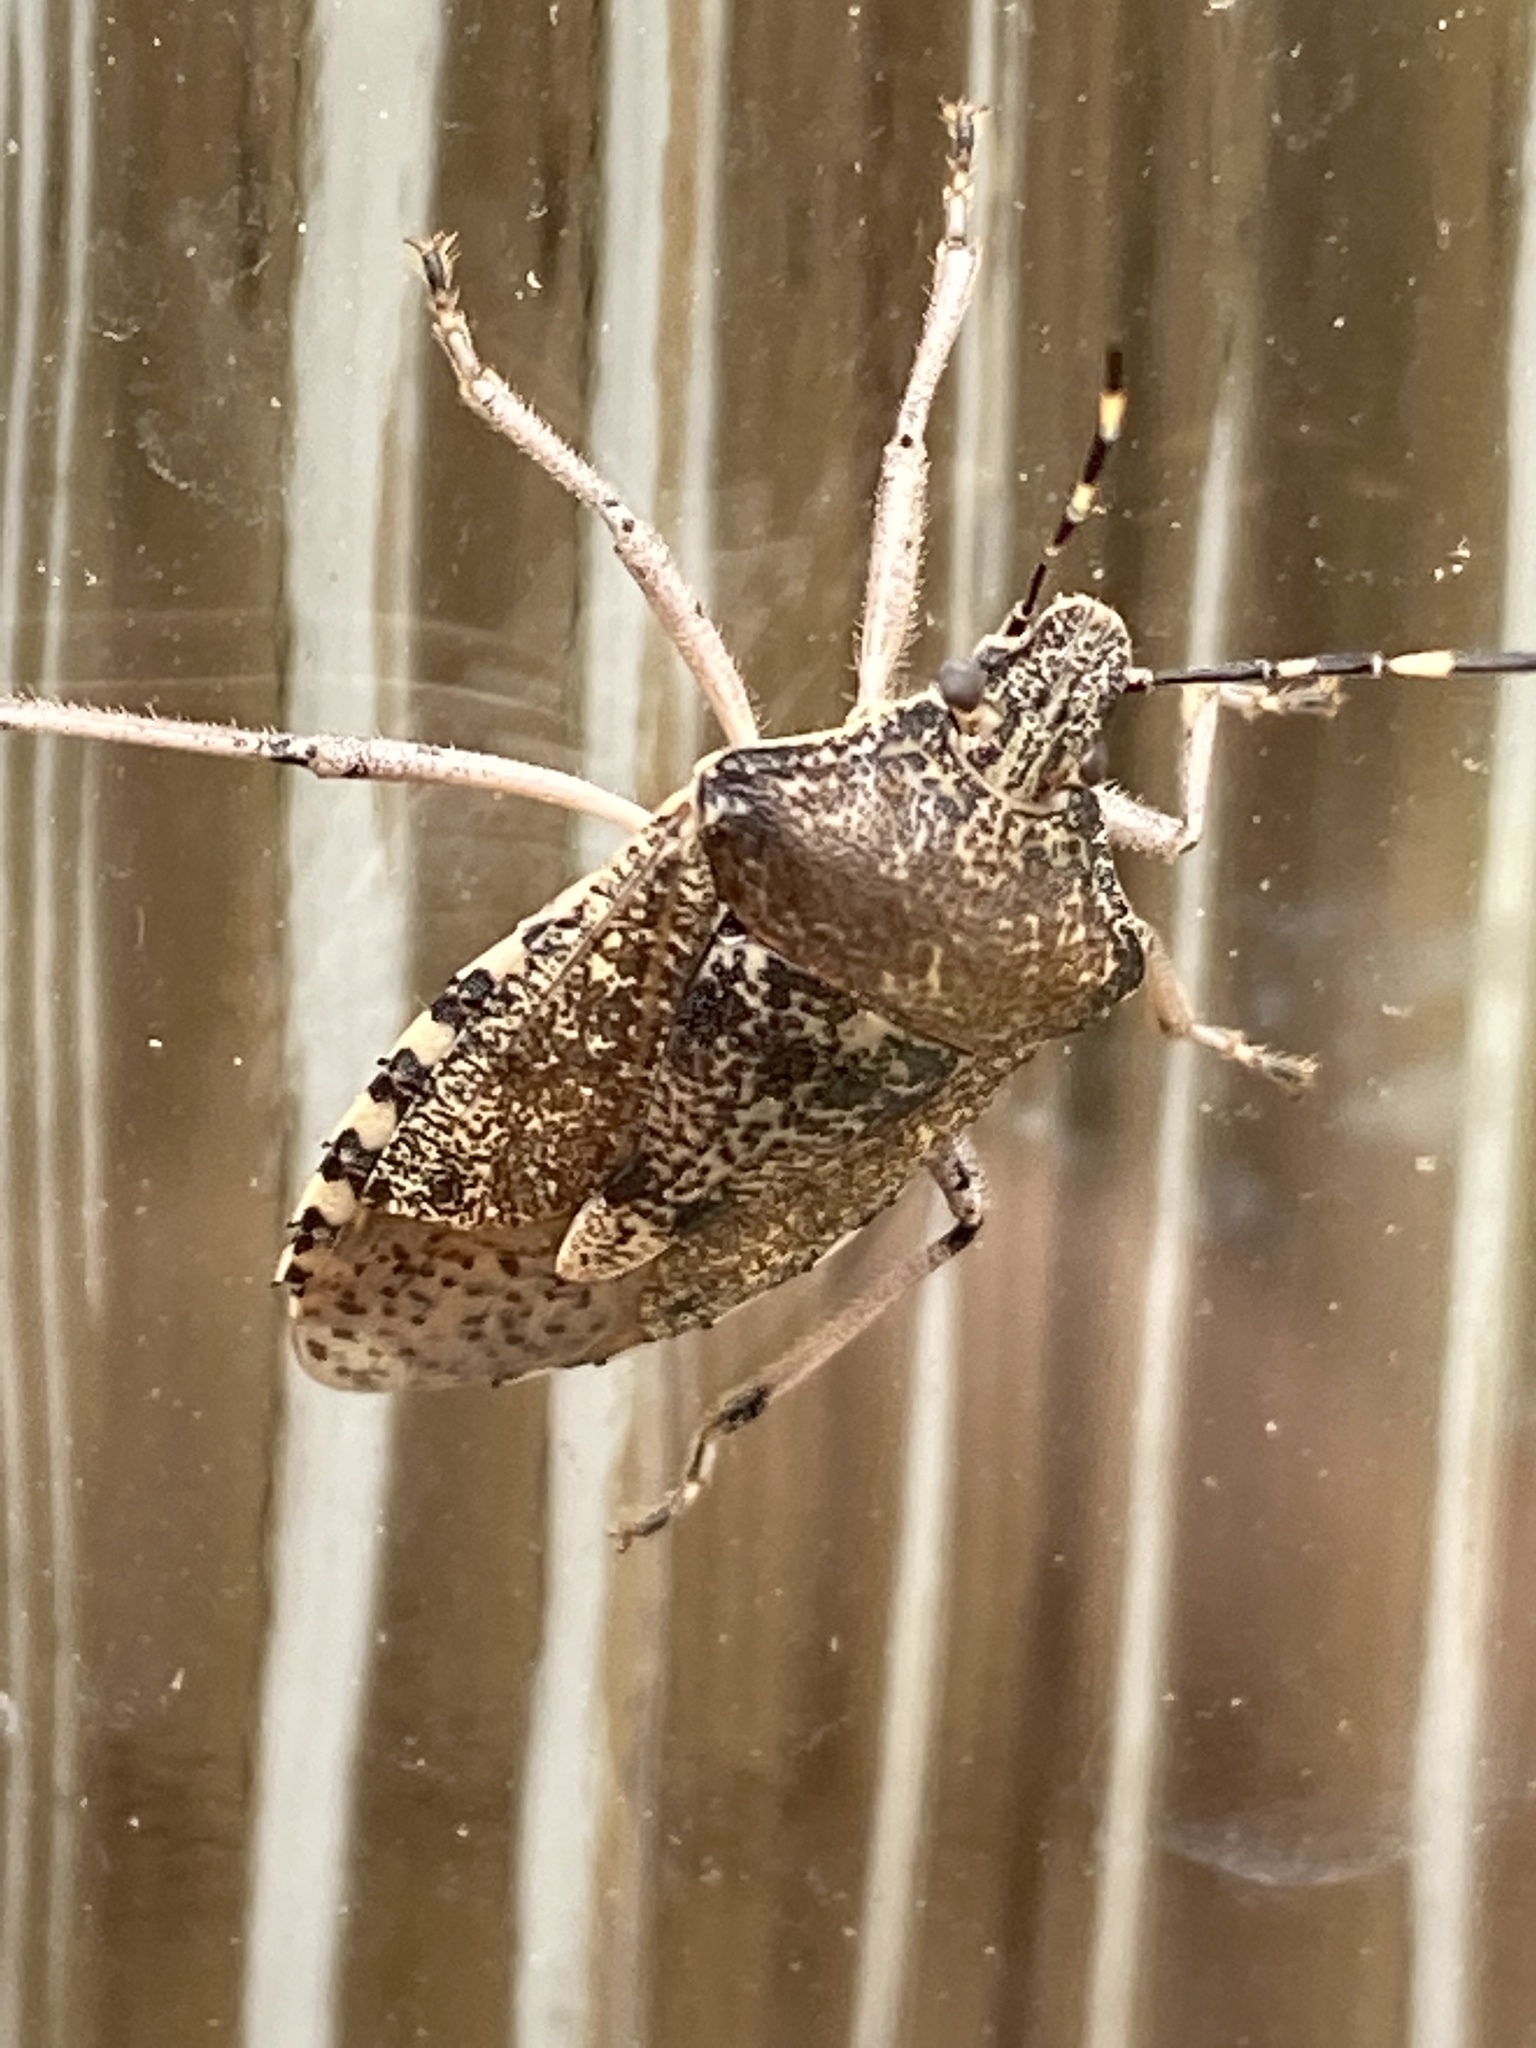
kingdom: Animalia
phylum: Arthropoda
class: Insecta
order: Hemiptera
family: Pentatomidae
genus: Rhaphigaster
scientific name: Rhaphigaster nebulosa
